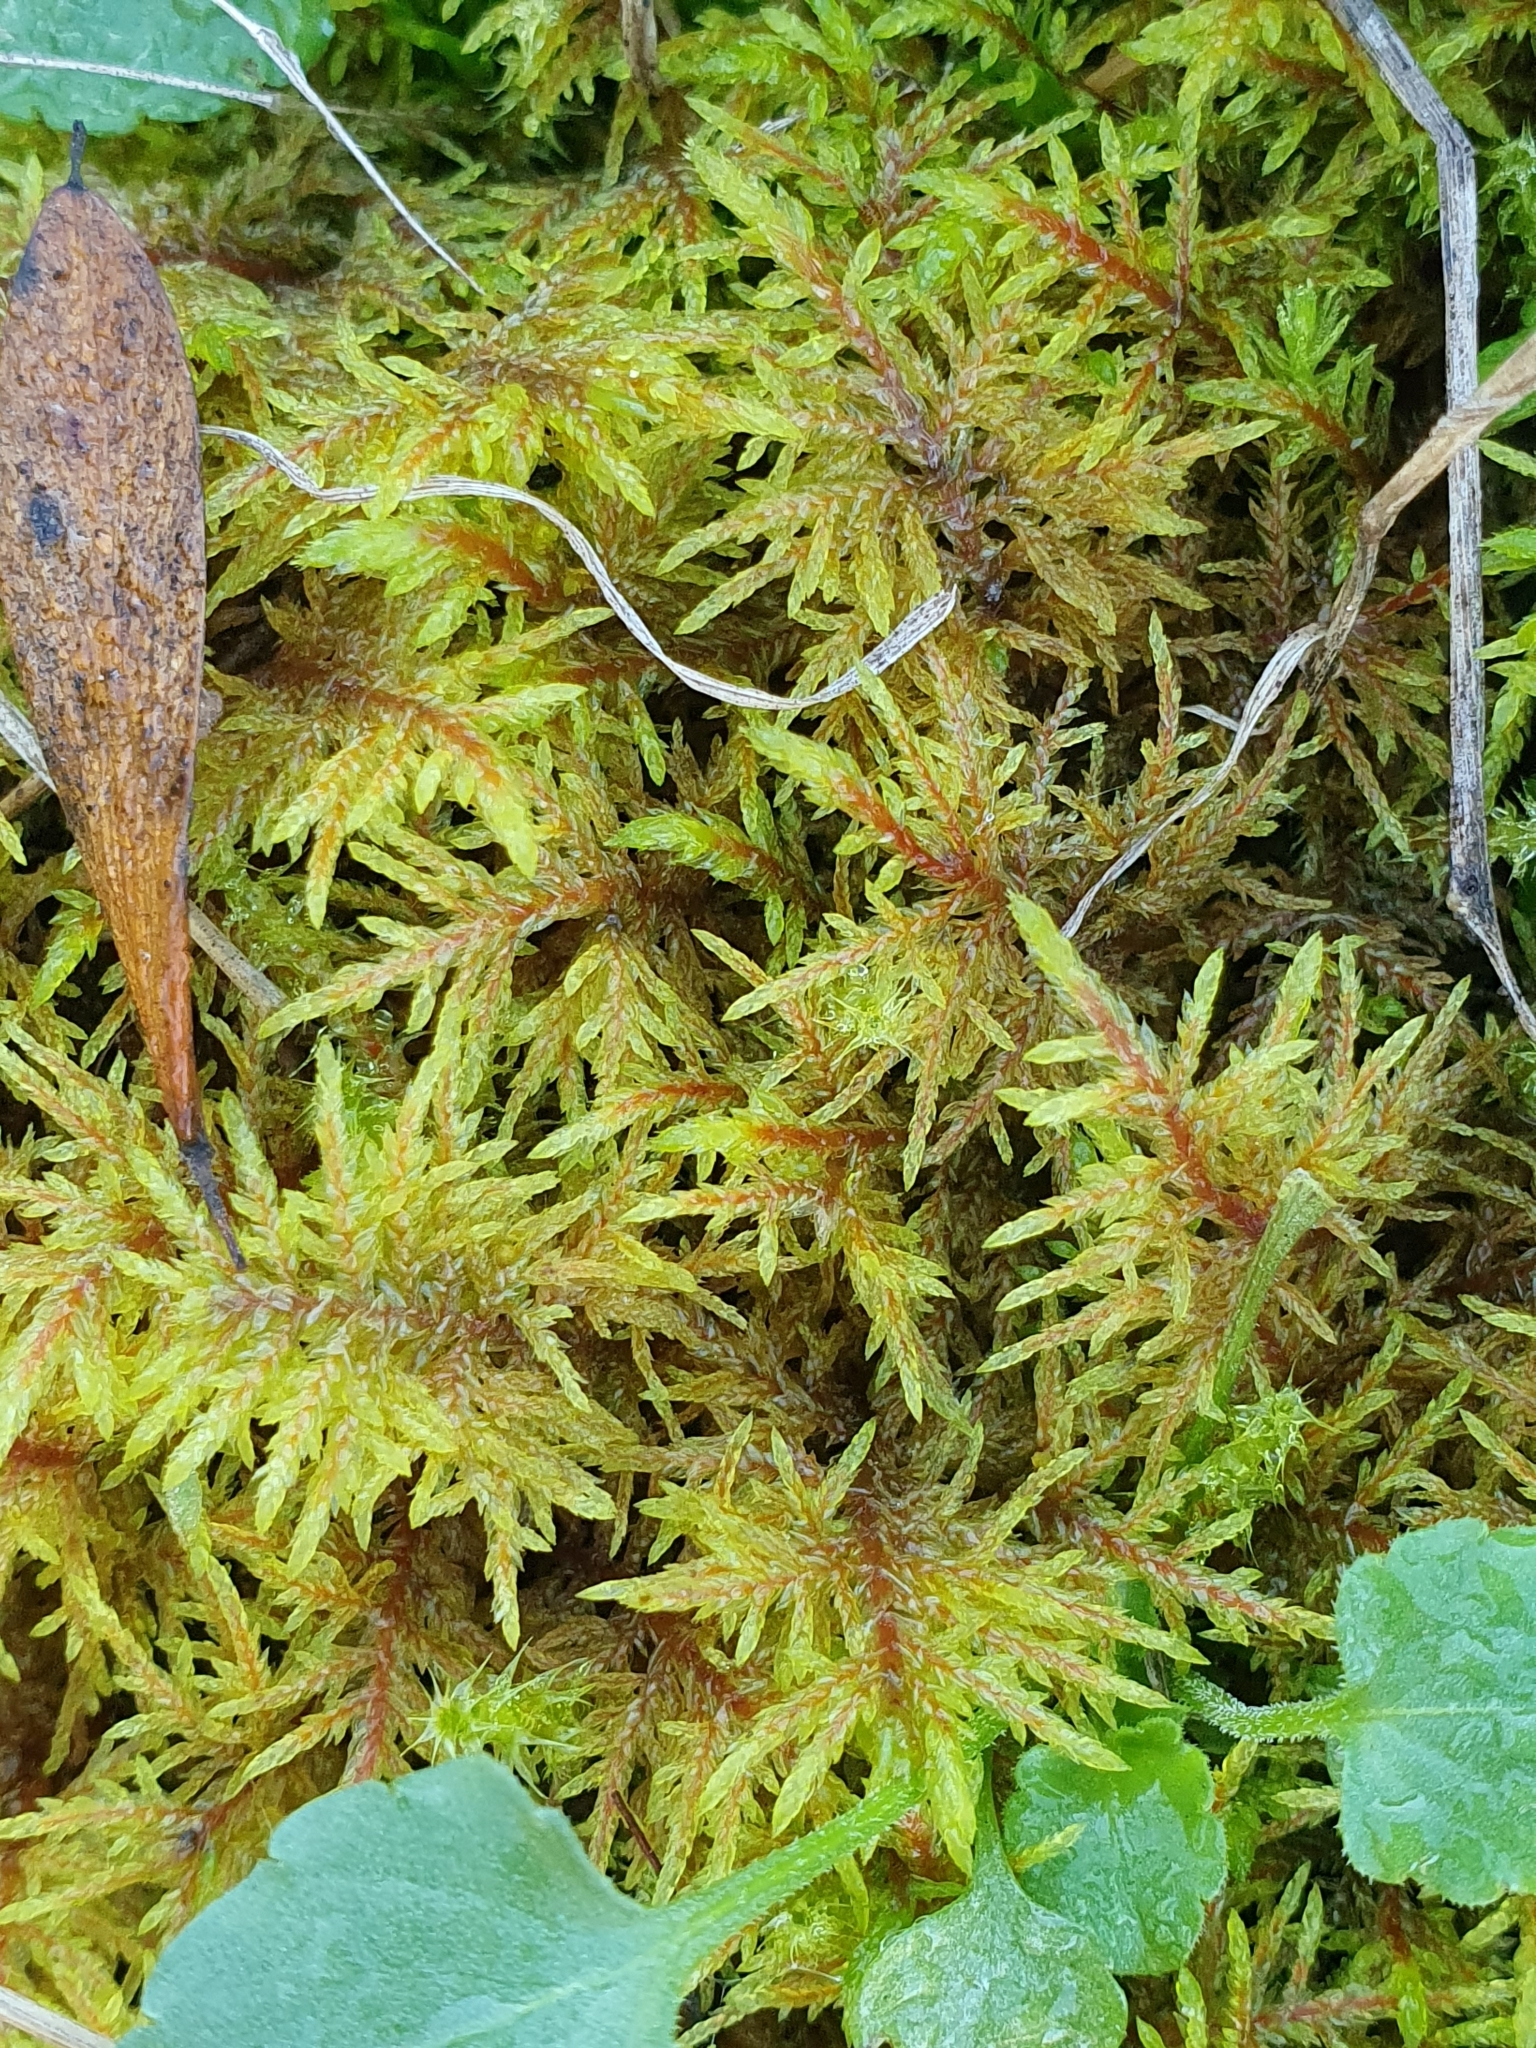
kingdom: Plantae
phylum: Bryophyta
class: Bryopsida
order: Hypnales
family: Hylocomiaceae
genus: Hylocomium
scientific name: Hylocomium splendens
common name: Stairstep moss
